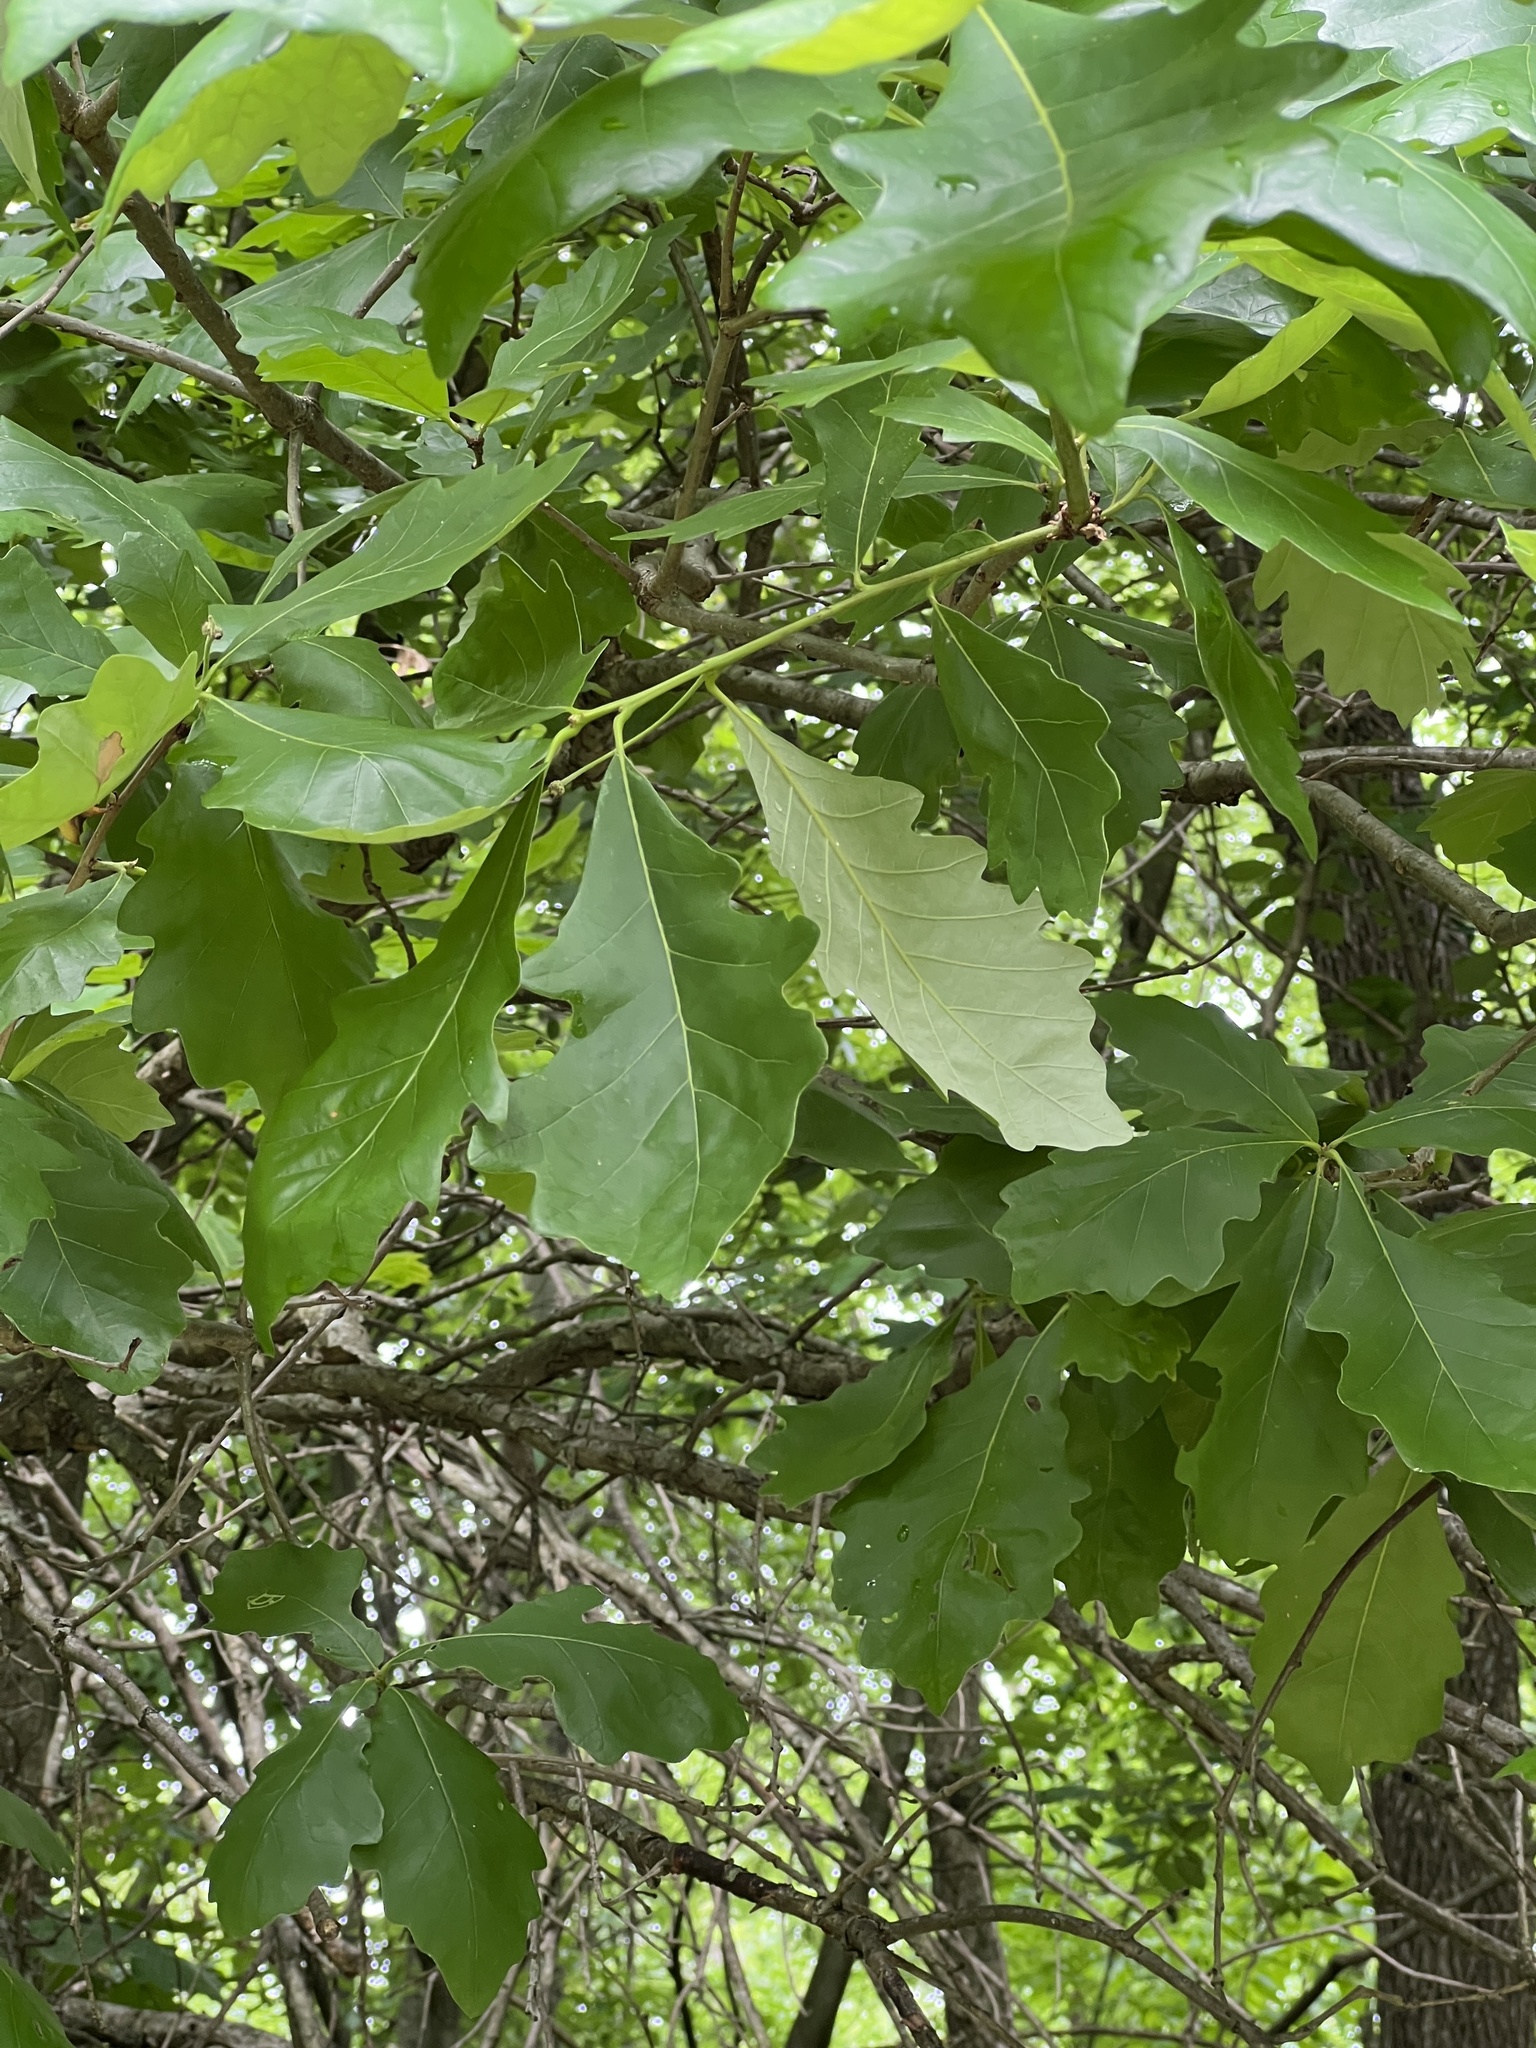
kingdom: Plantae
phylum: Tracheophyta
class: Magnoliopsida
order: Fagales
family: Fagaceae
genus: Quercus
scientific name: Quercus bicolor
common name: Swamp white oak
